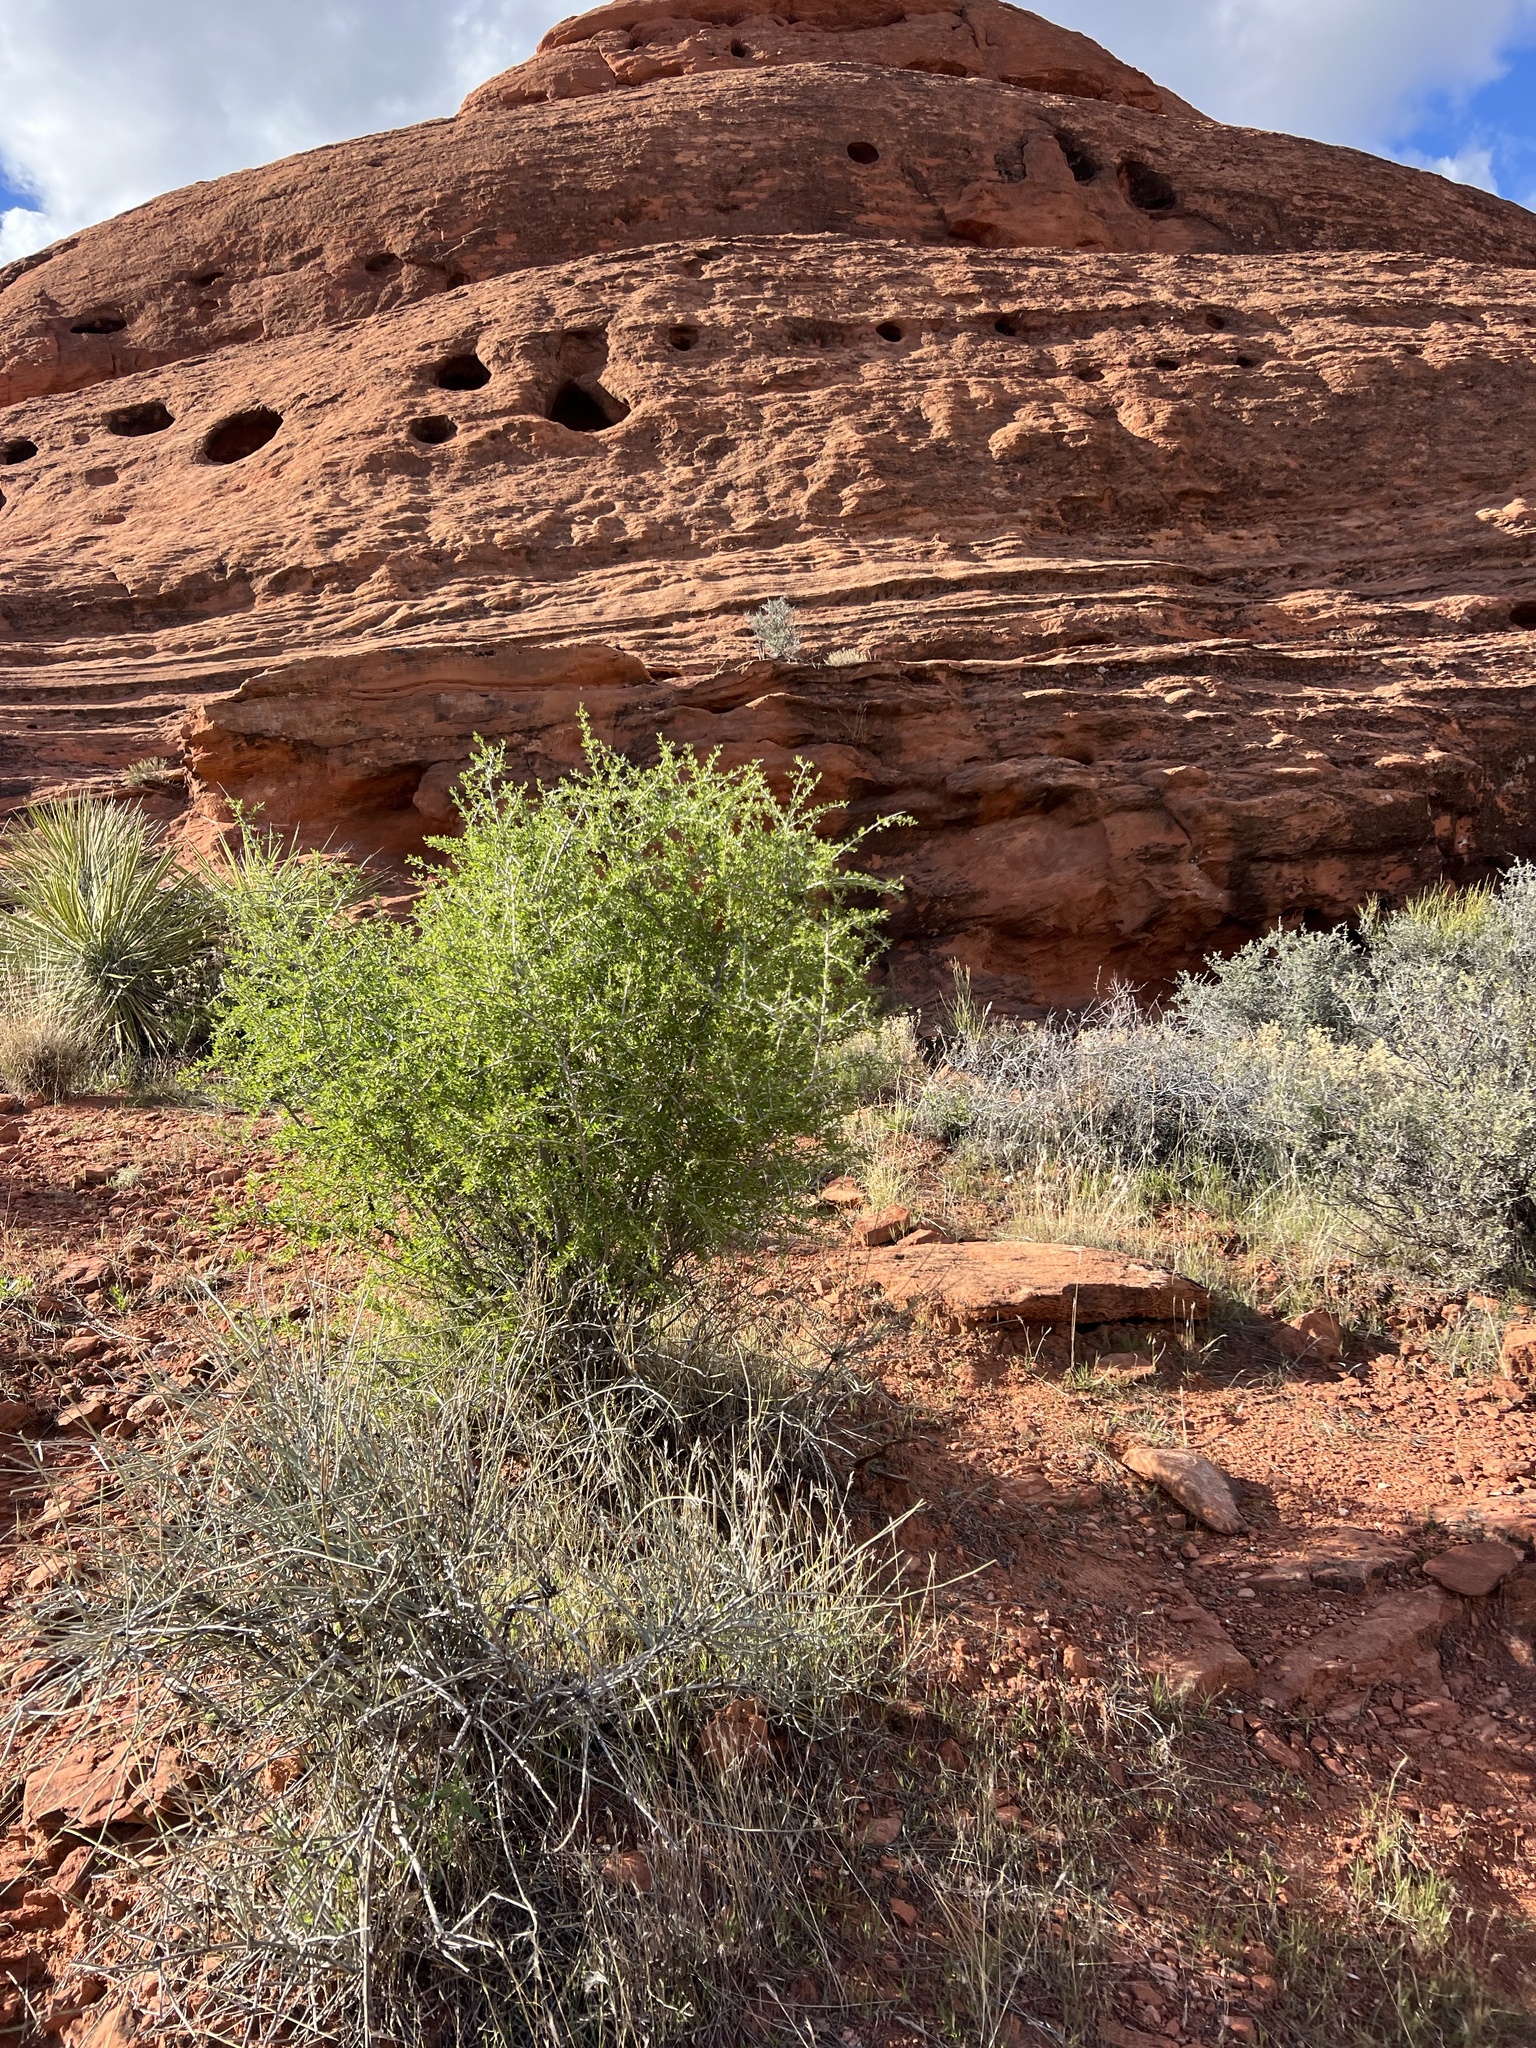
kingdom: Plantae
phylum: Tracheophyta
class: Magnoliopsida
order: Rosales
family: Rosaceae
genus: Prunus
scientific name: Prunus fasciculata
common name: Desert almond
